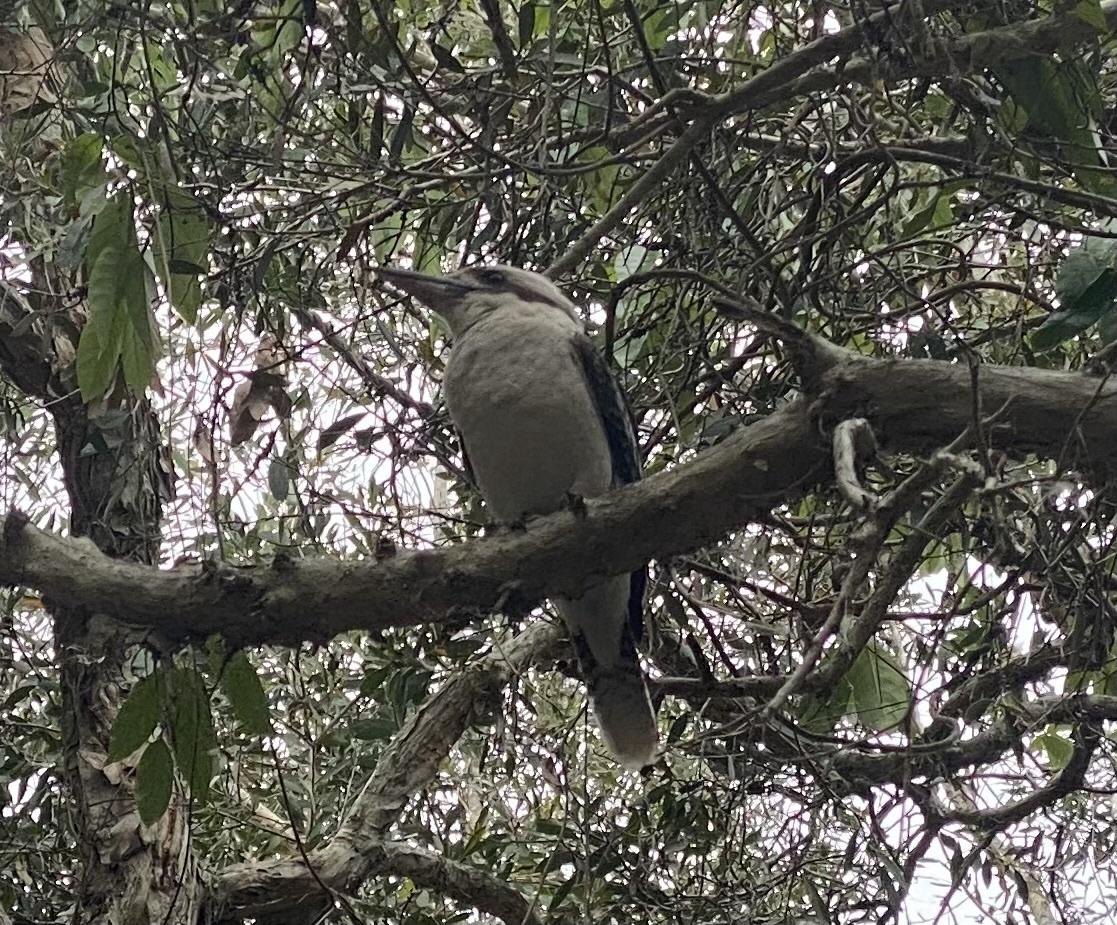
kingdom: Animalia
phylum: Chordata
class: Aves
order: Coraciiformes
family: Alcedinidae
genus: Dacelo
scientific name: Dacelo novaeguineae
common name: Laughing kookaburra
